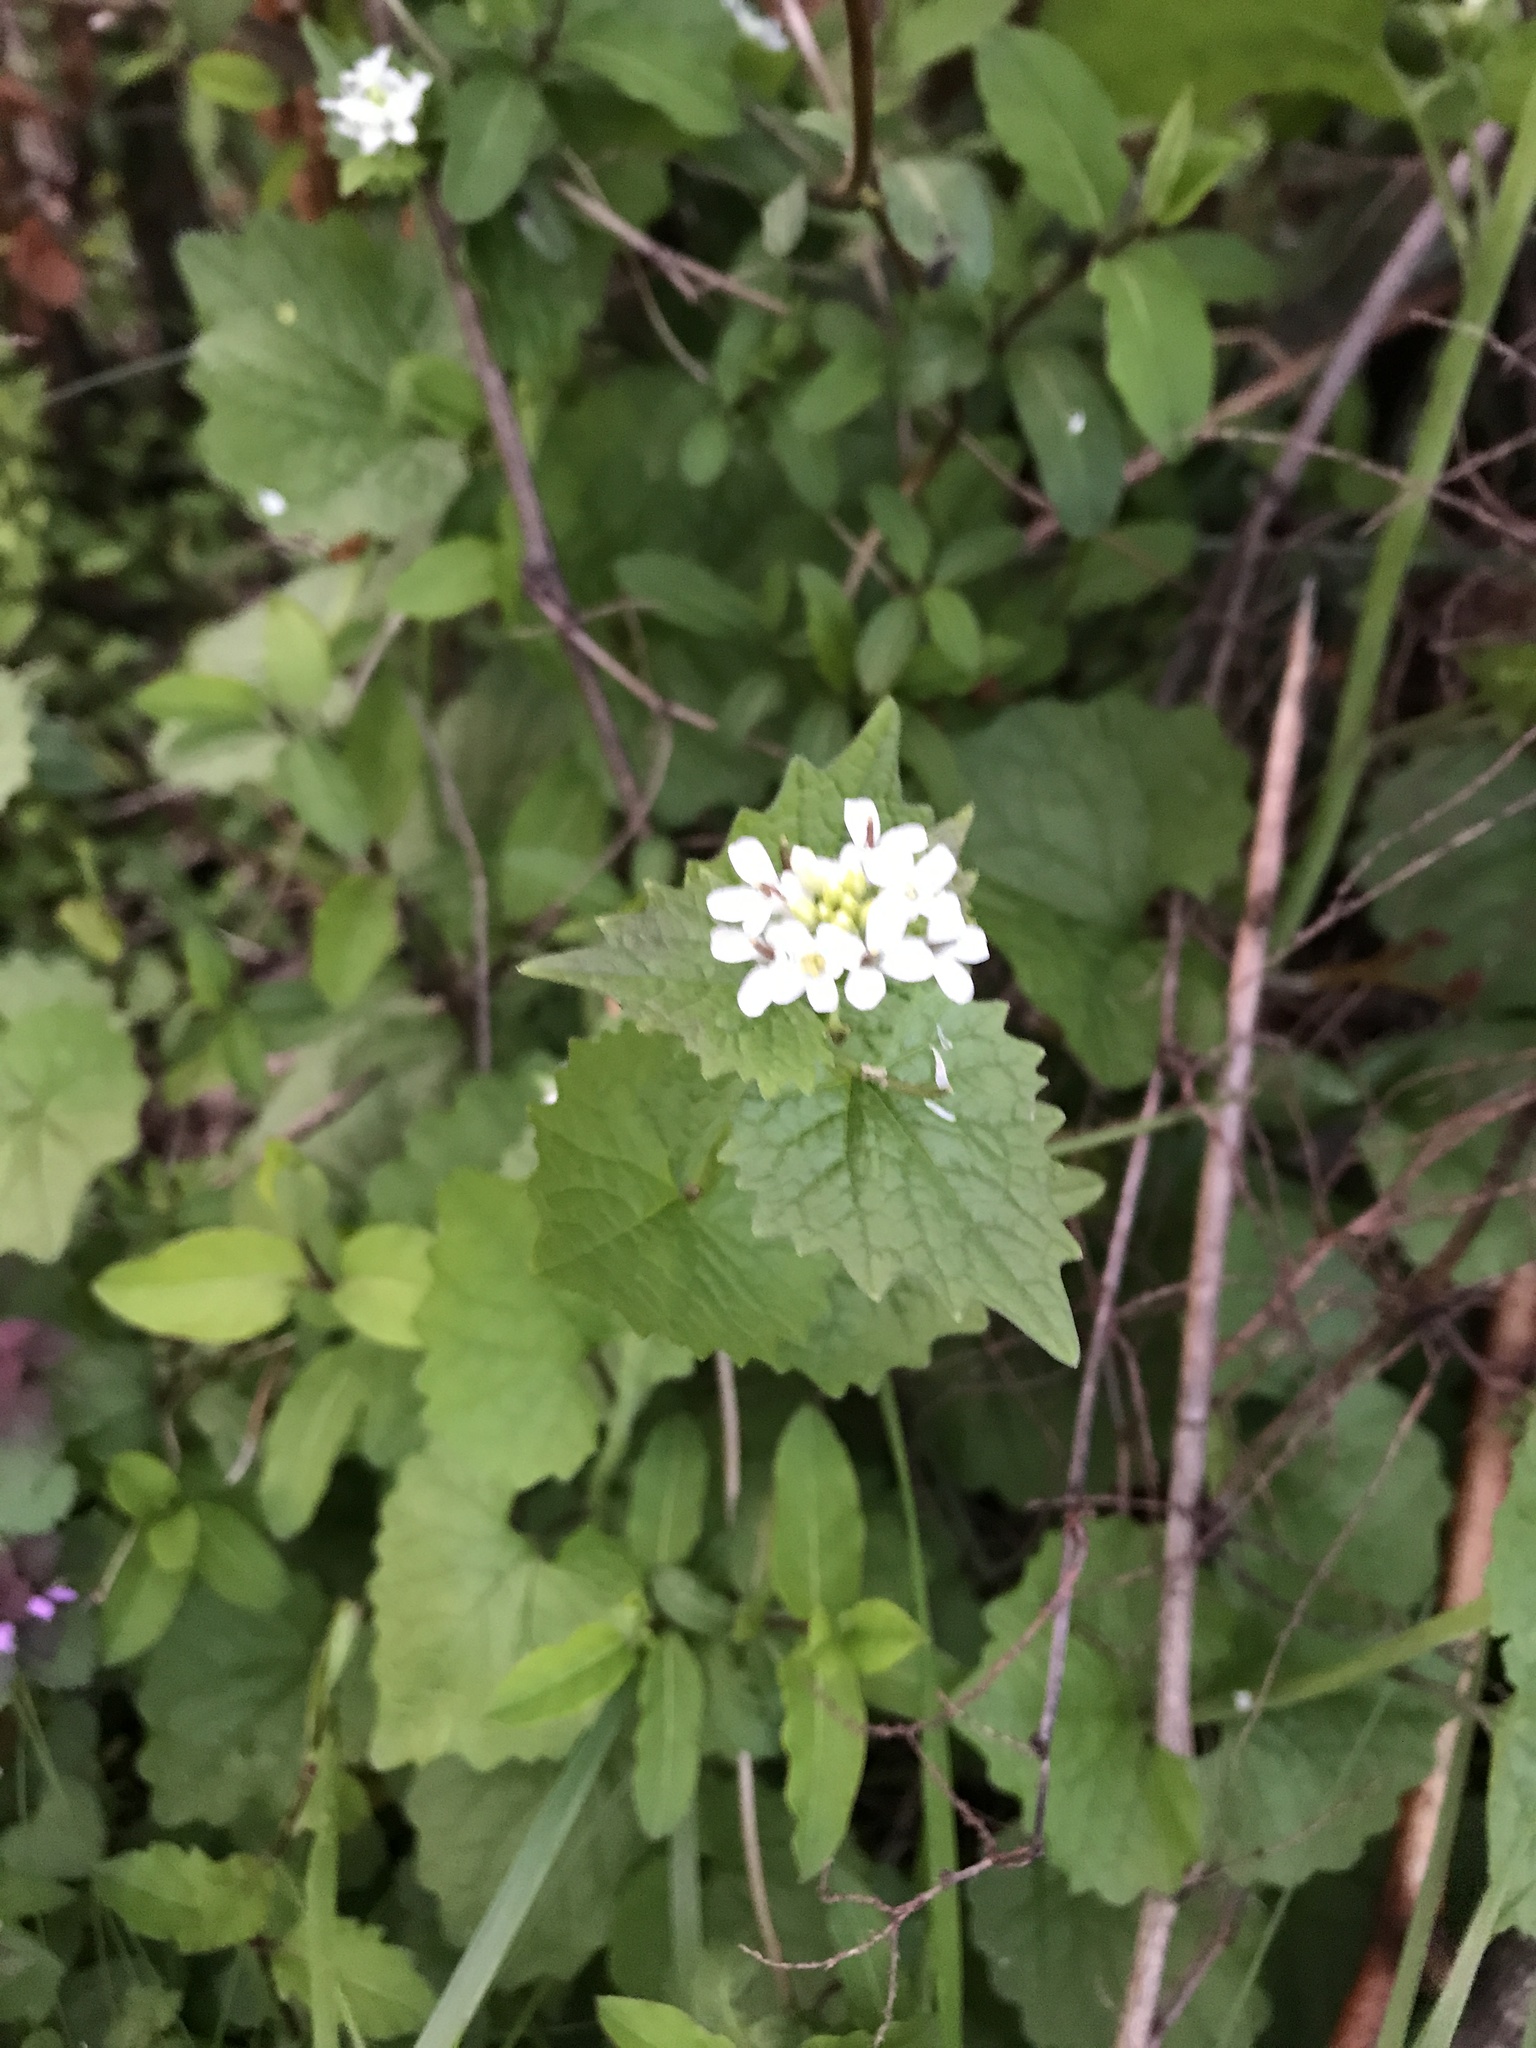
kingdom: Plantae
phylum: Tracheophyta
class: Magnoliopsida
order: Brassicales
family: Brassicaceae
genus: Alliaria
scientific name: Alliaria petiolata
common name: Garlic mustard
